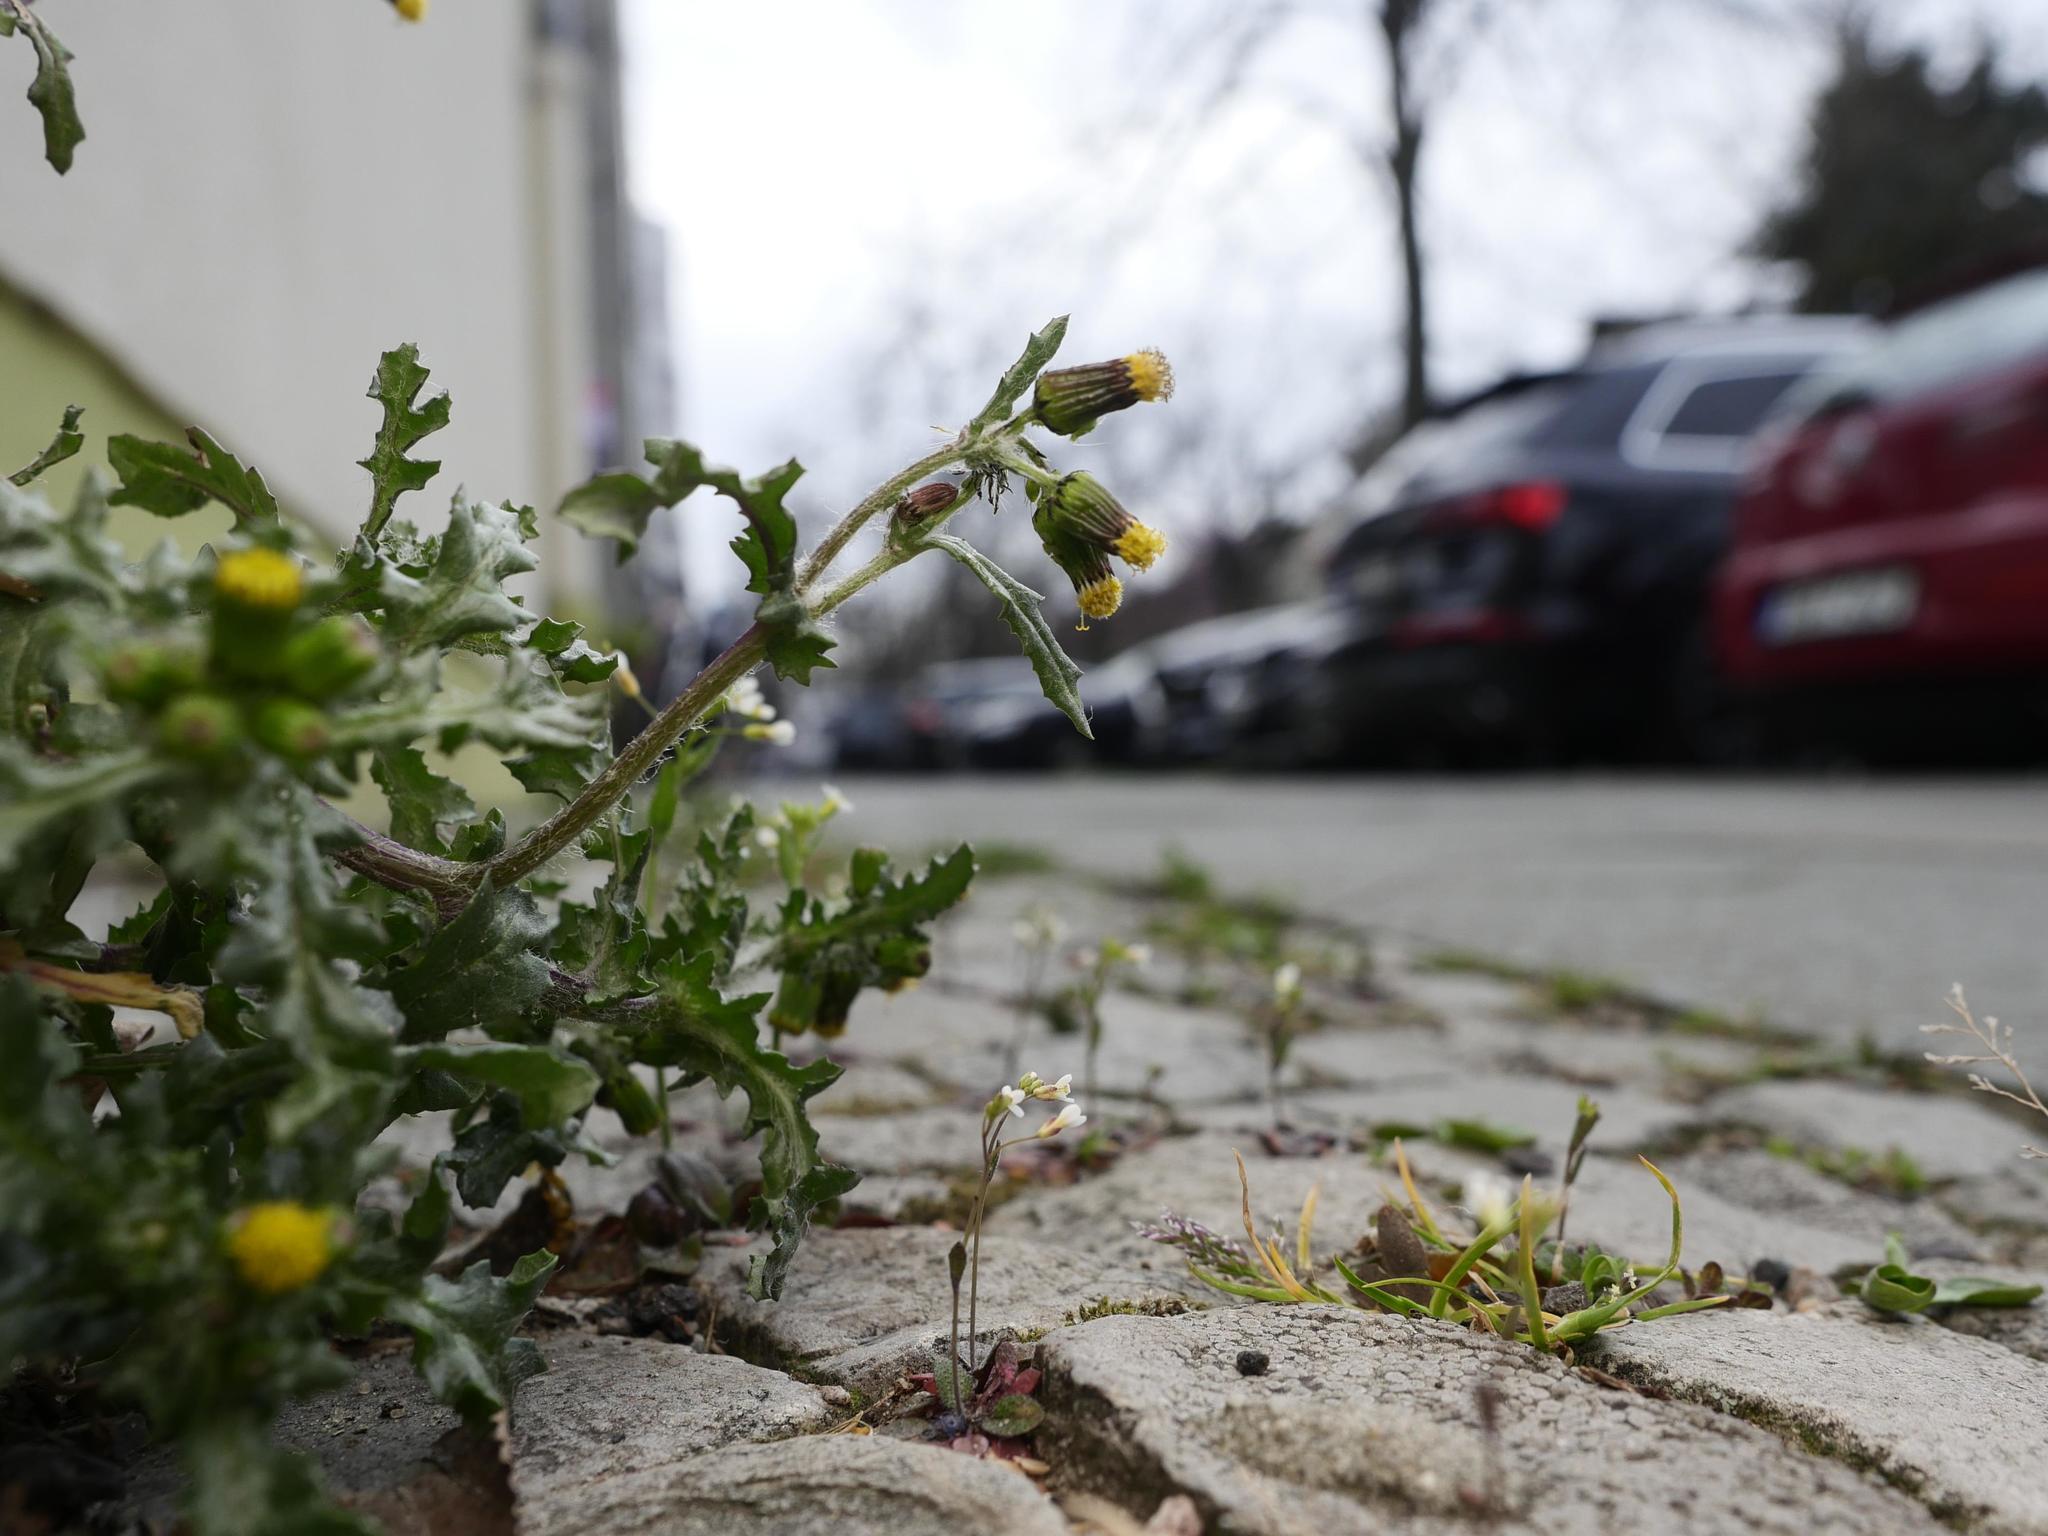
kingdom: Plantae
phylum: Tracheophyta
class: Magnoliopsida
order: Asterales
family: Asteraceae
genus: Senecio
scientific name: Senecio vulgaris
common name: Old-man-in-the-spring
